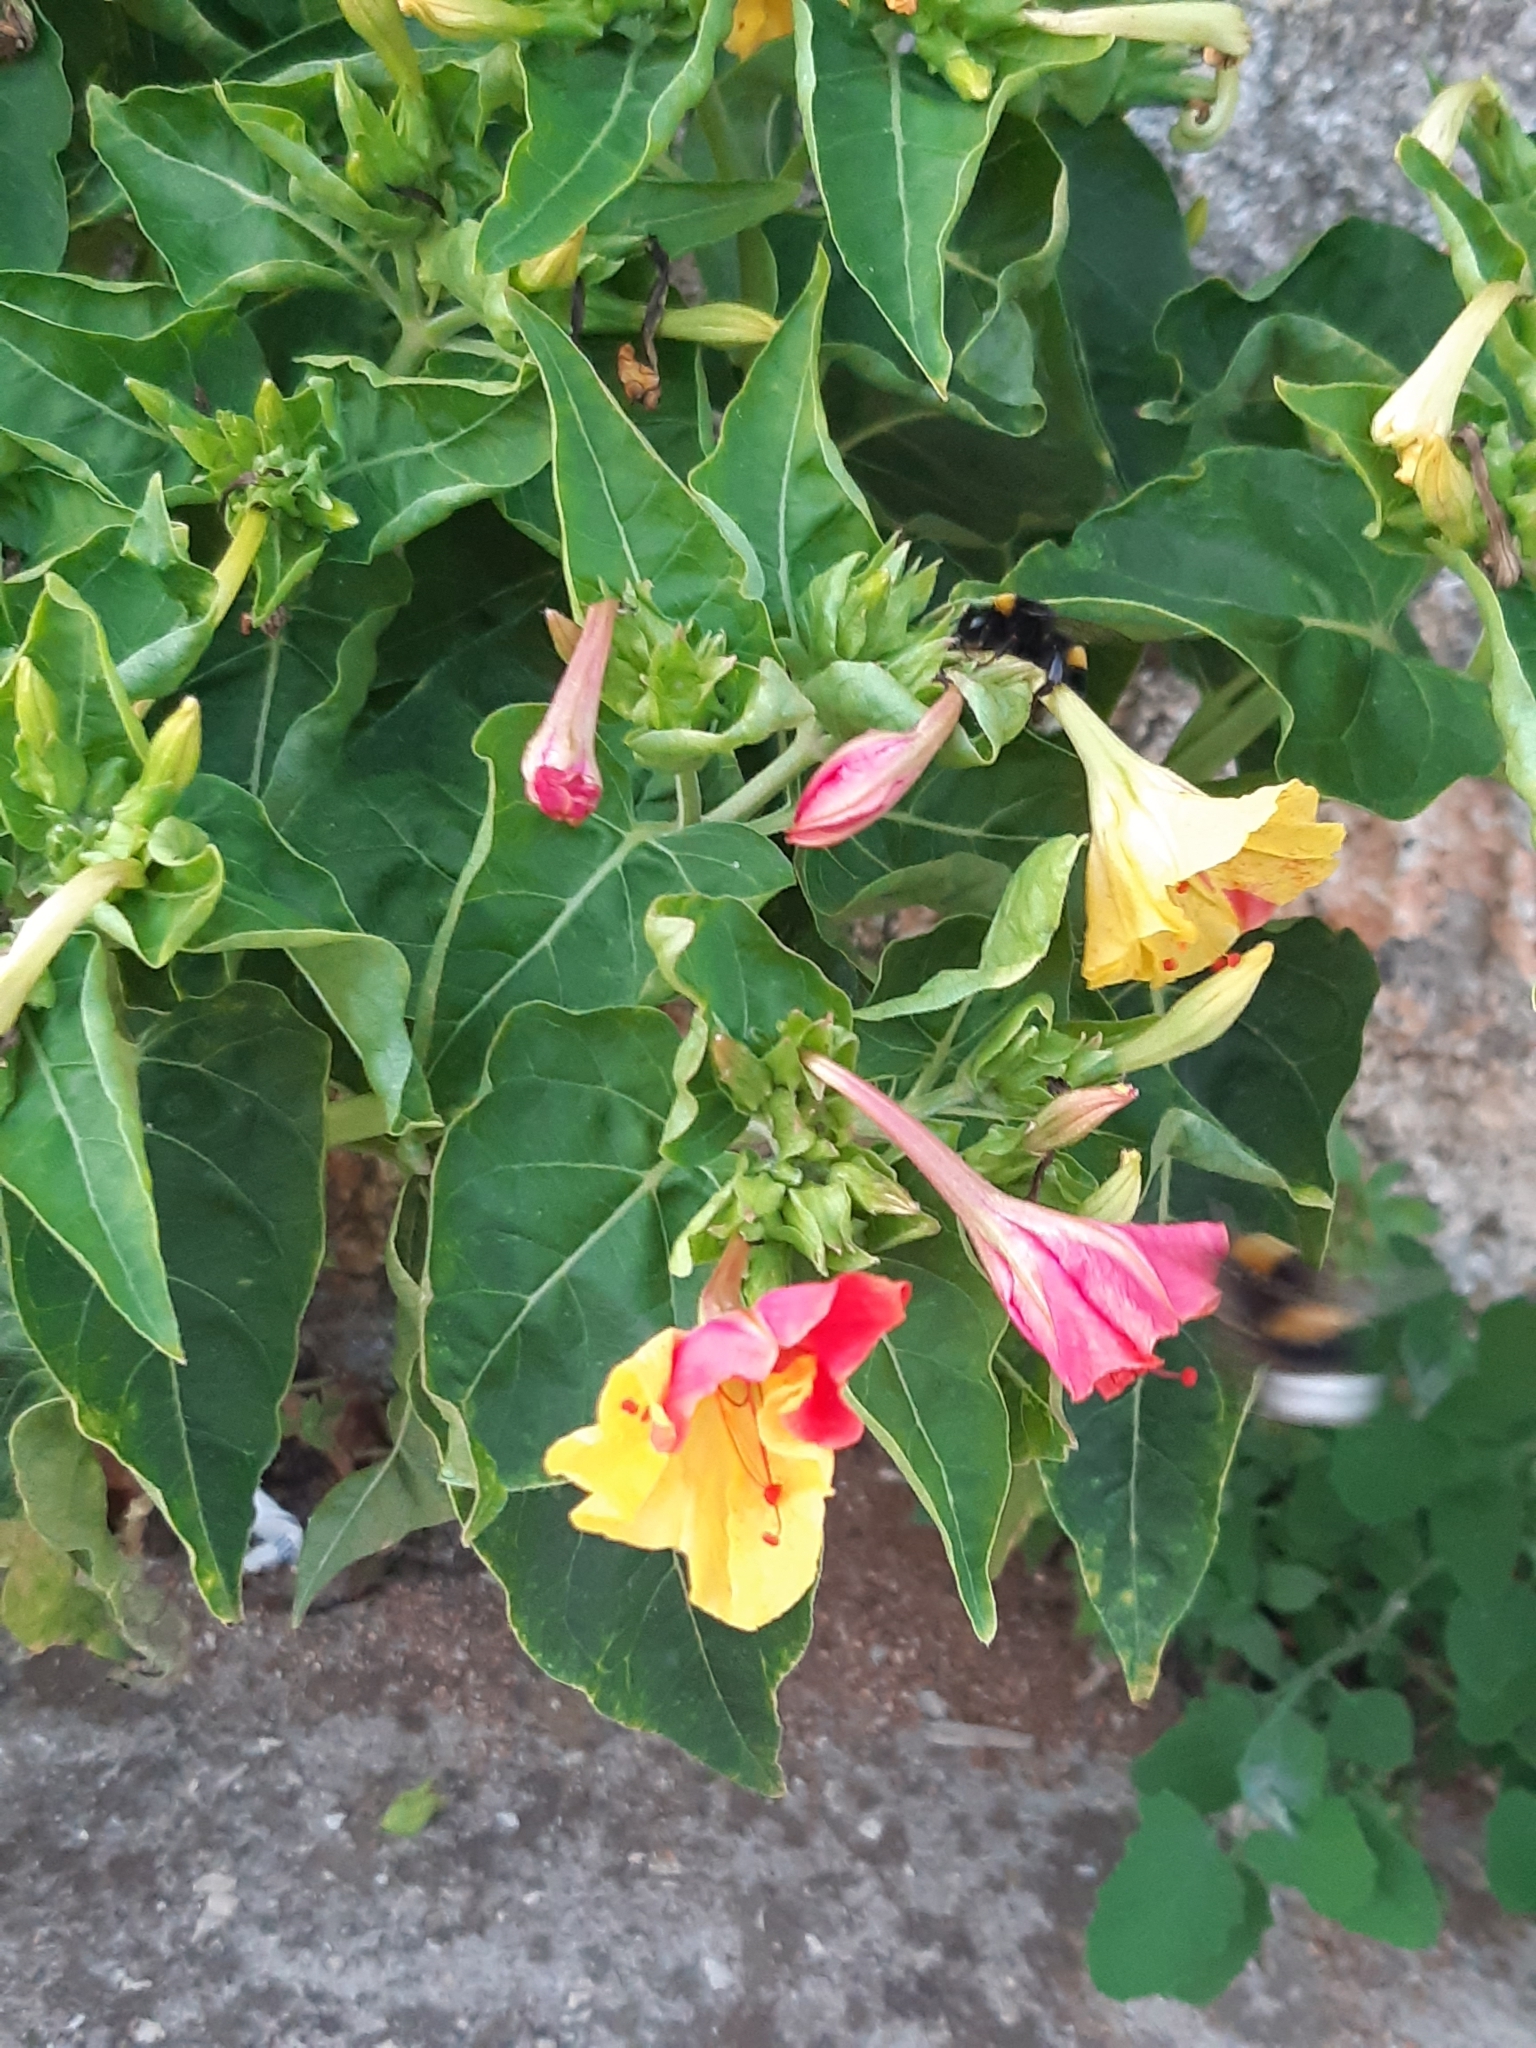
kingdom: Plantae
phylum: Tracheophyta
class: Magnoliopsida
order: Caryophyllales
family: Nyctaginaceae
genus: Mirabilis
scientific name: Mirabilis jalapa
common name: Marvel-of-peru
